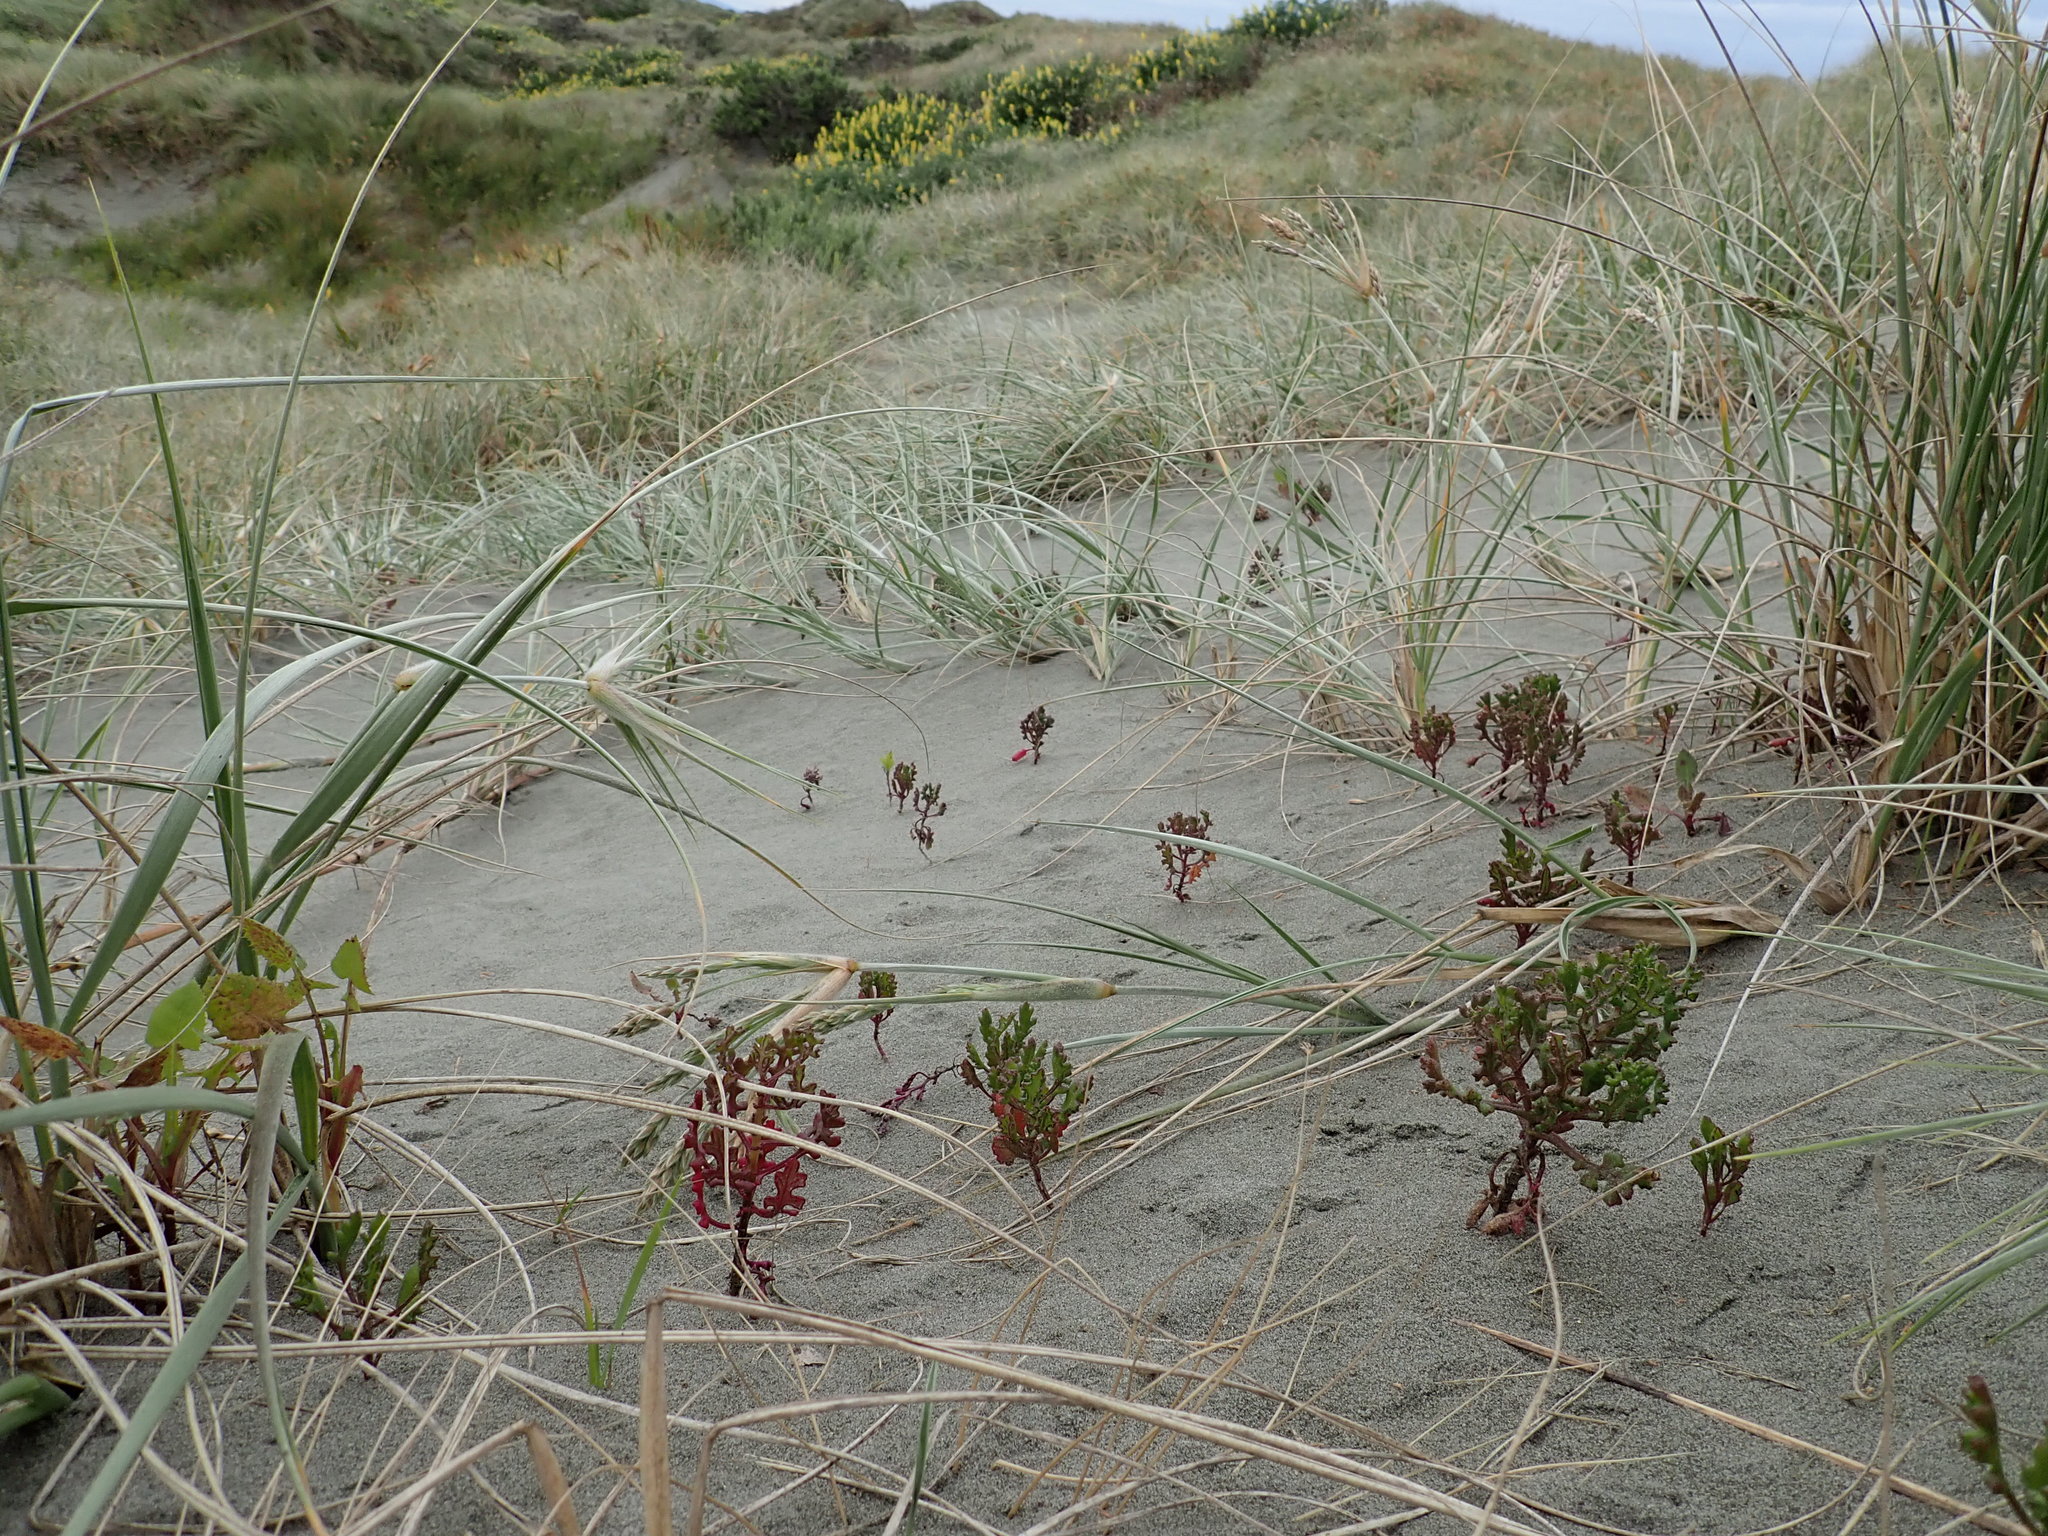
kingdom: Plantae
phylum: Tracheophyta
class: Magnoliopsida
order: Asterales
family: Asteraceae
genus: Senecio
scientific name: Senecio elegans
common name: Purple groundsel
